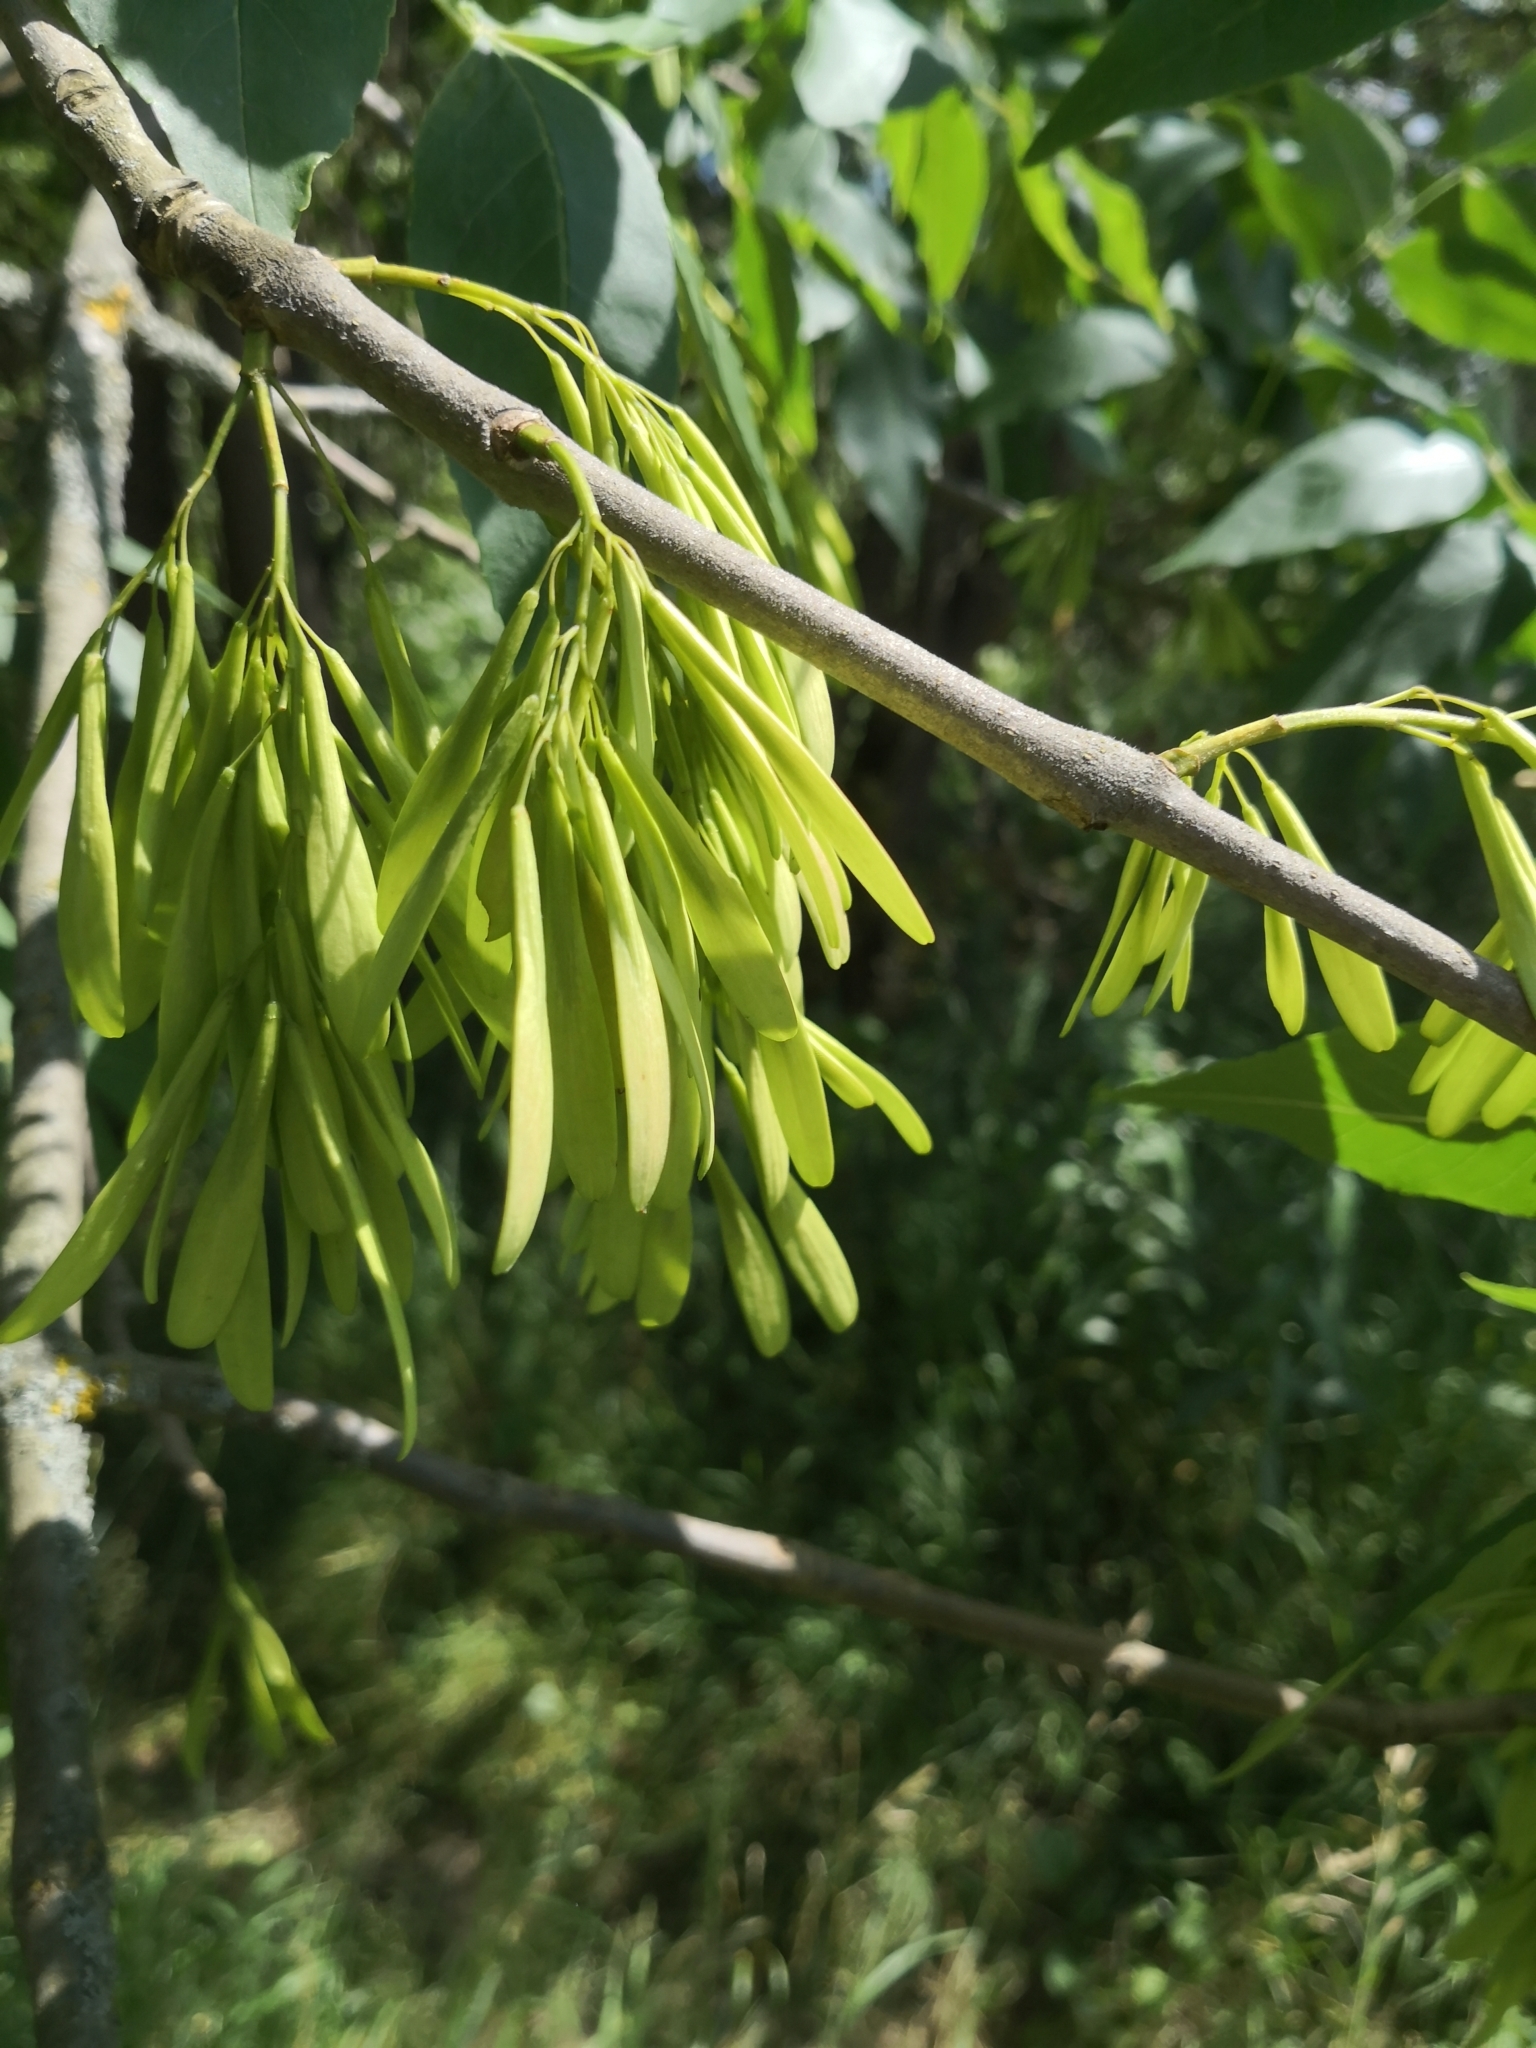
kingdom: Plantae
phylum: Tracheophyta
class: Magnoliopsida
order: Lamiales
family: Oleaceae
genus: Fraxinus
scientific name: Fraxinus pennsylvanica
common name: Green ash
